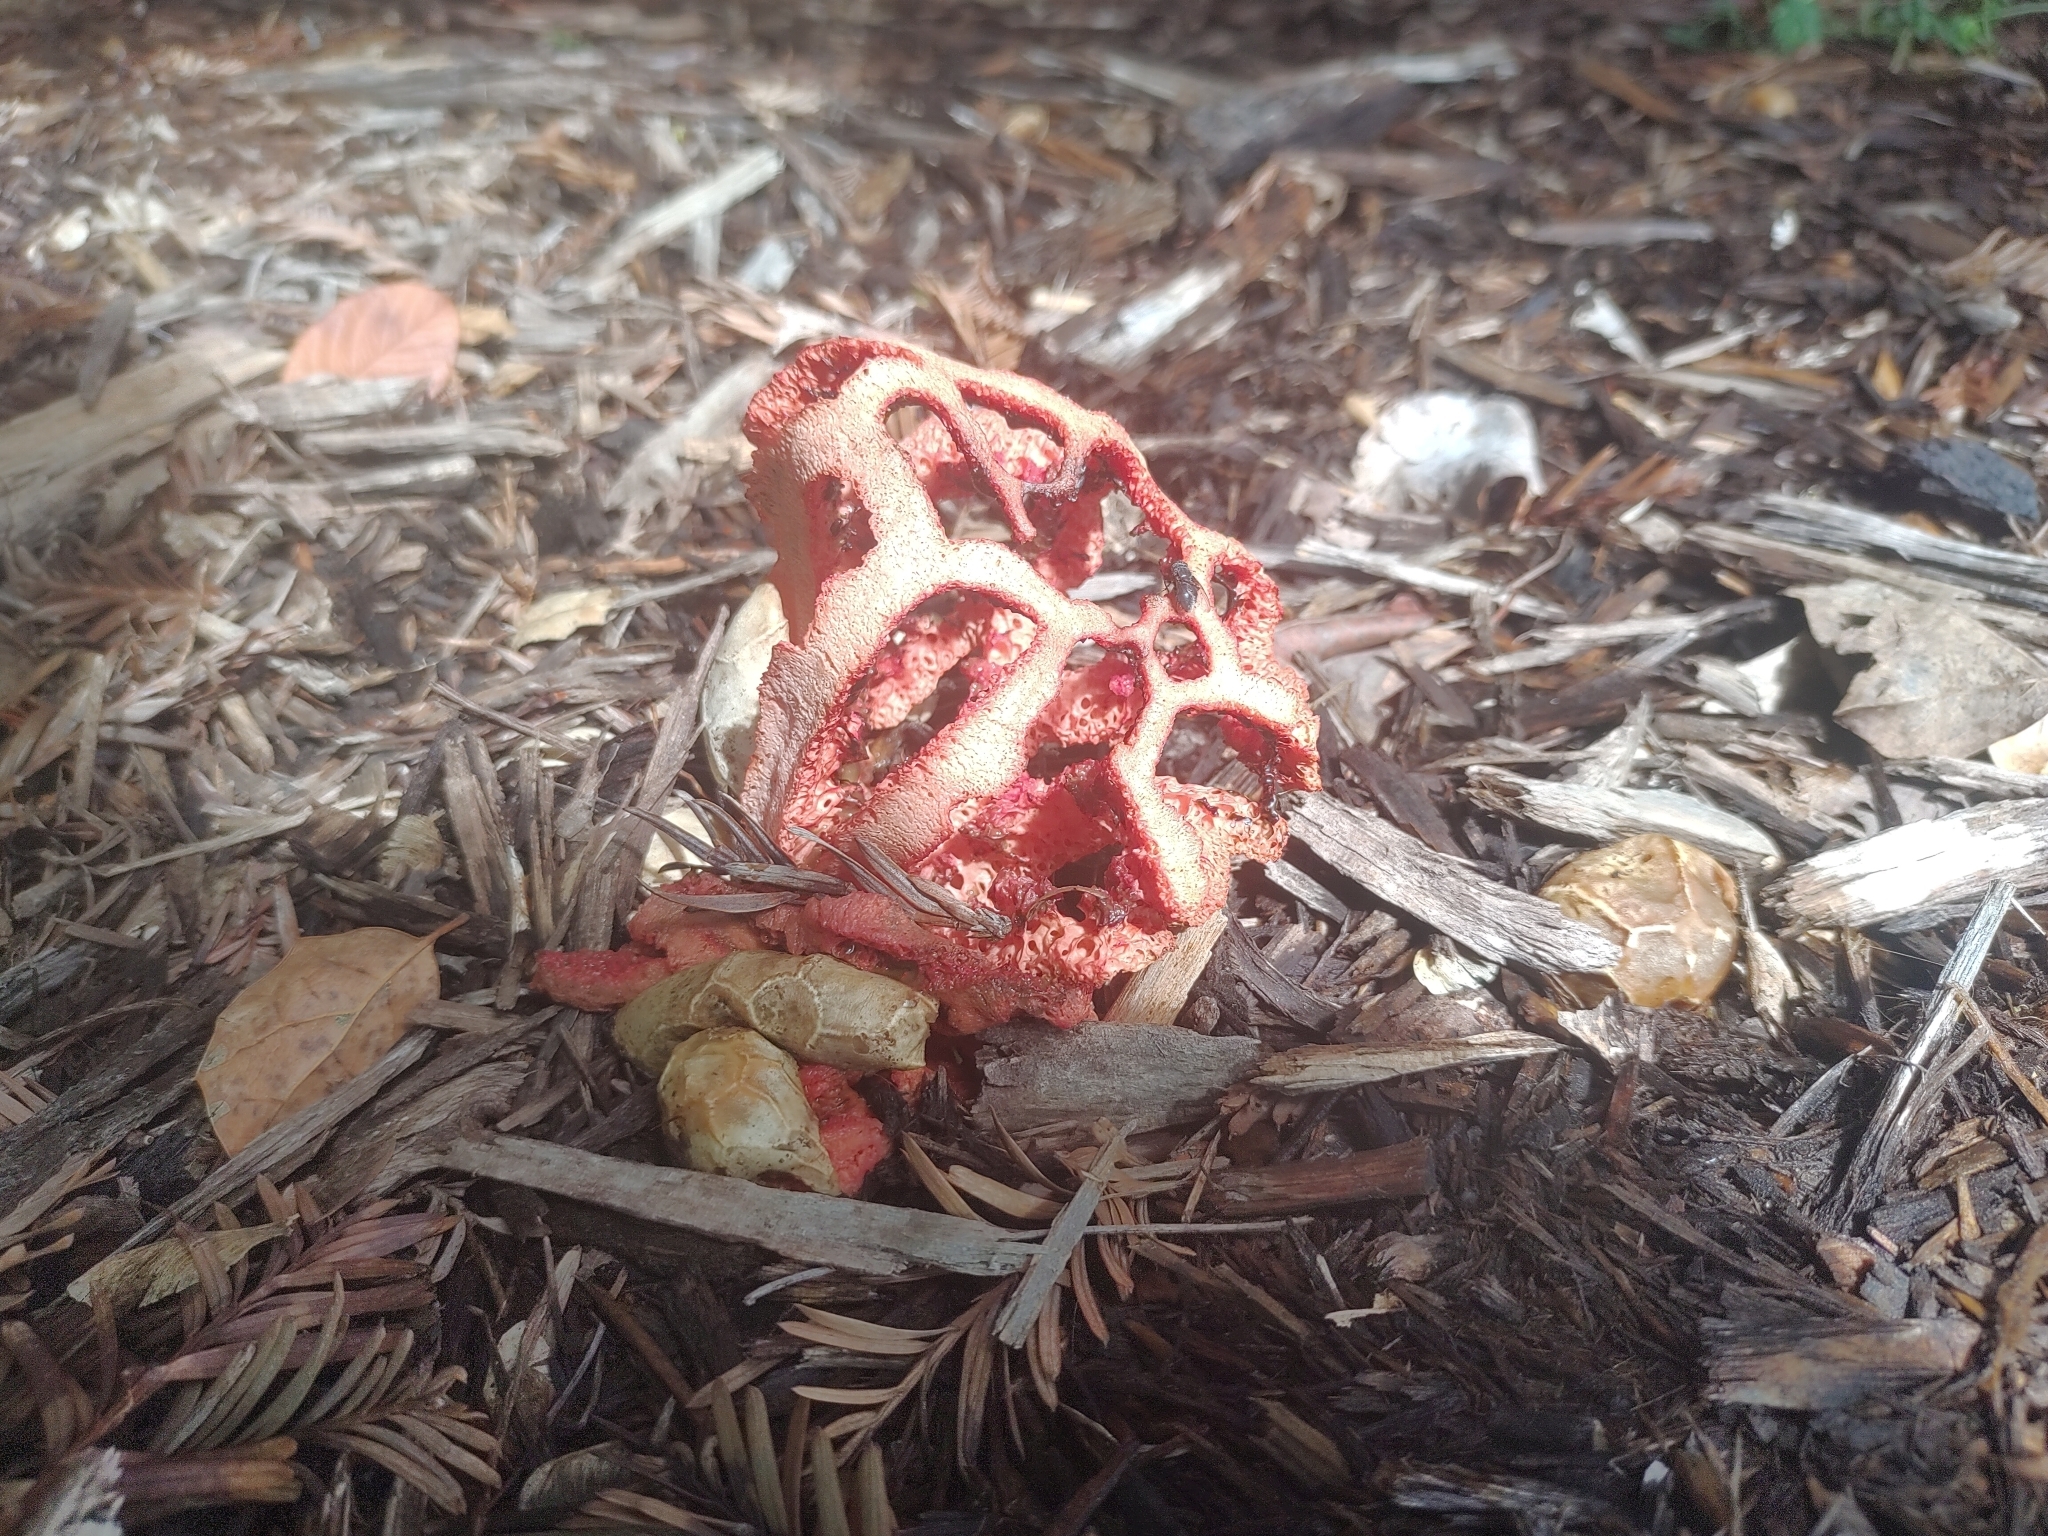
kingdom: Fungi
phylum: Basidiomycota
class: Agaricomycetes
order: Phallales
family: Phallaceae
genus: Clathrus
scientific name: Clathrus ruber
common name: Red cage
